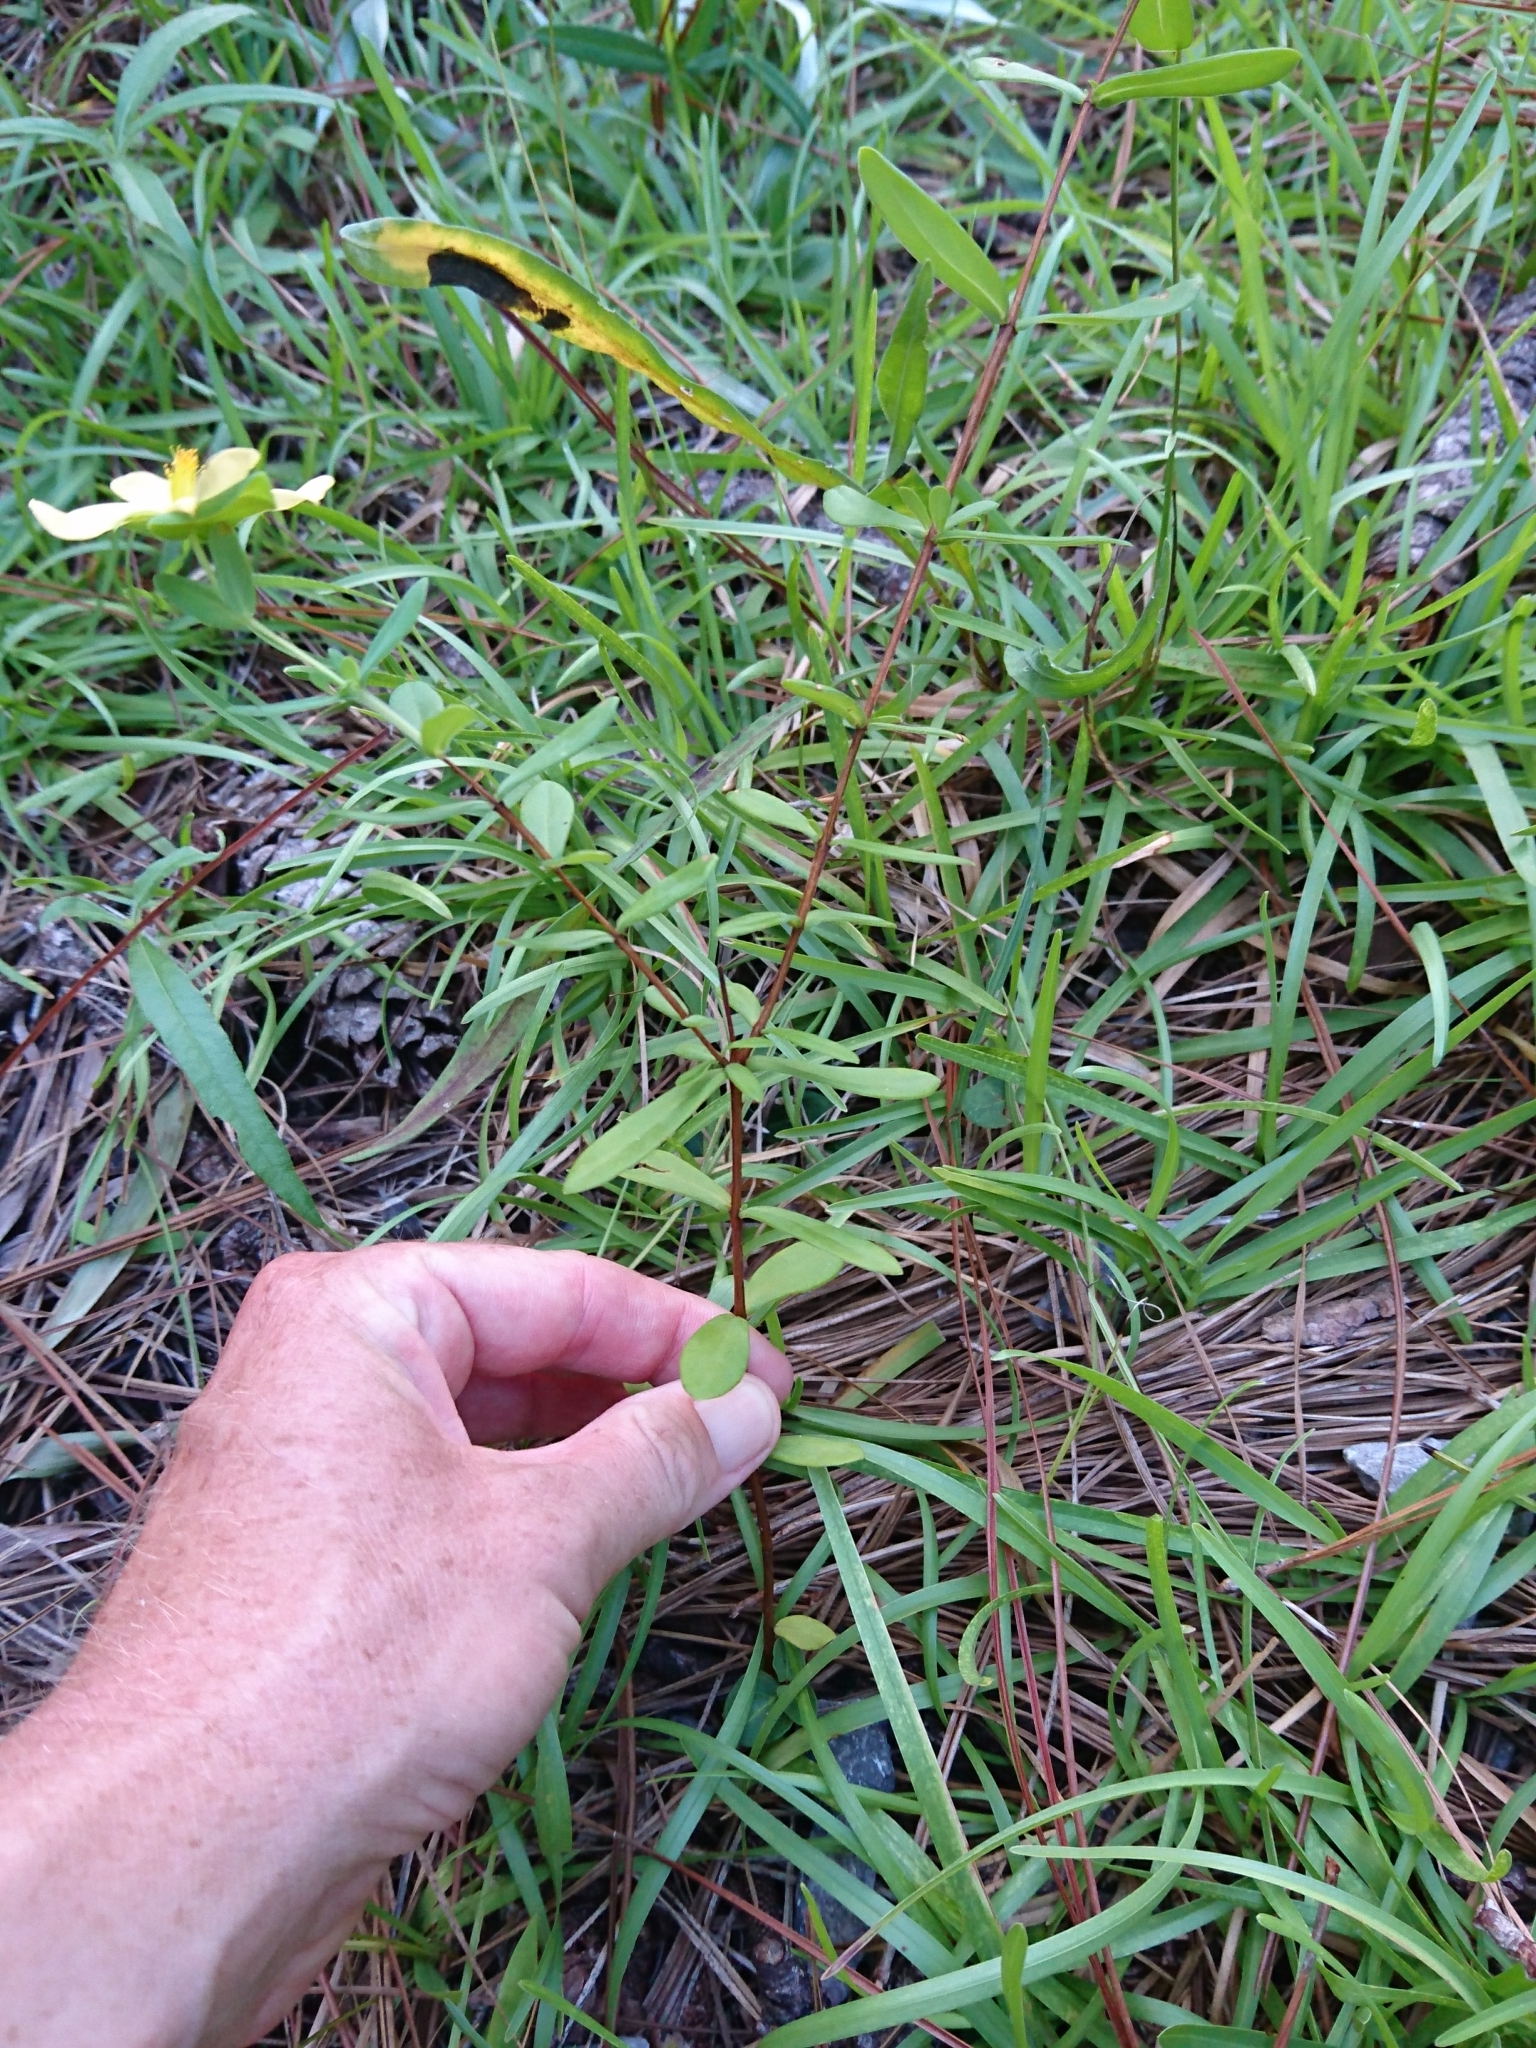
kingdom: Plantae
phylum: Tracheophyta
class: Magnoliopsida
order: Malpighiales
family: Hypericaceae
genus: Hypericum
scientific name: Hypericum crux-andreae
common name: St.-peter's-wort
